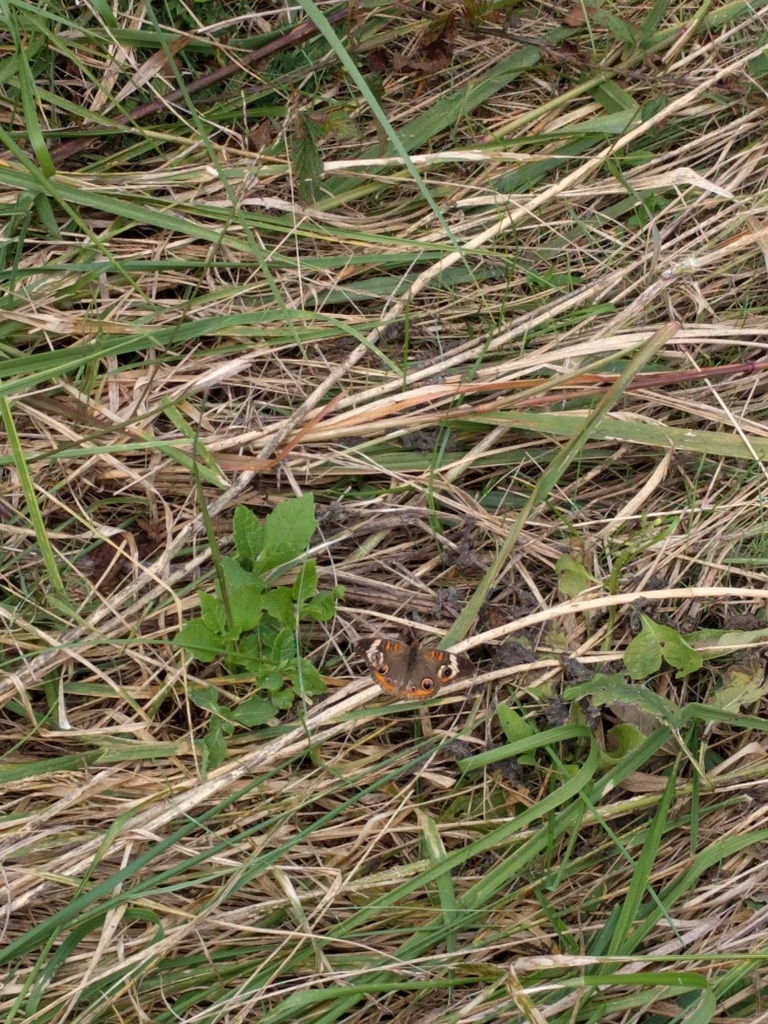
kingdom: Animalia
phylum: Arthropoda
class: Insecta
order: Lepidoptera
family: Nymphalidae
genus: Junonia
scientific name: Junonia coenia
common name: Common buckeye
